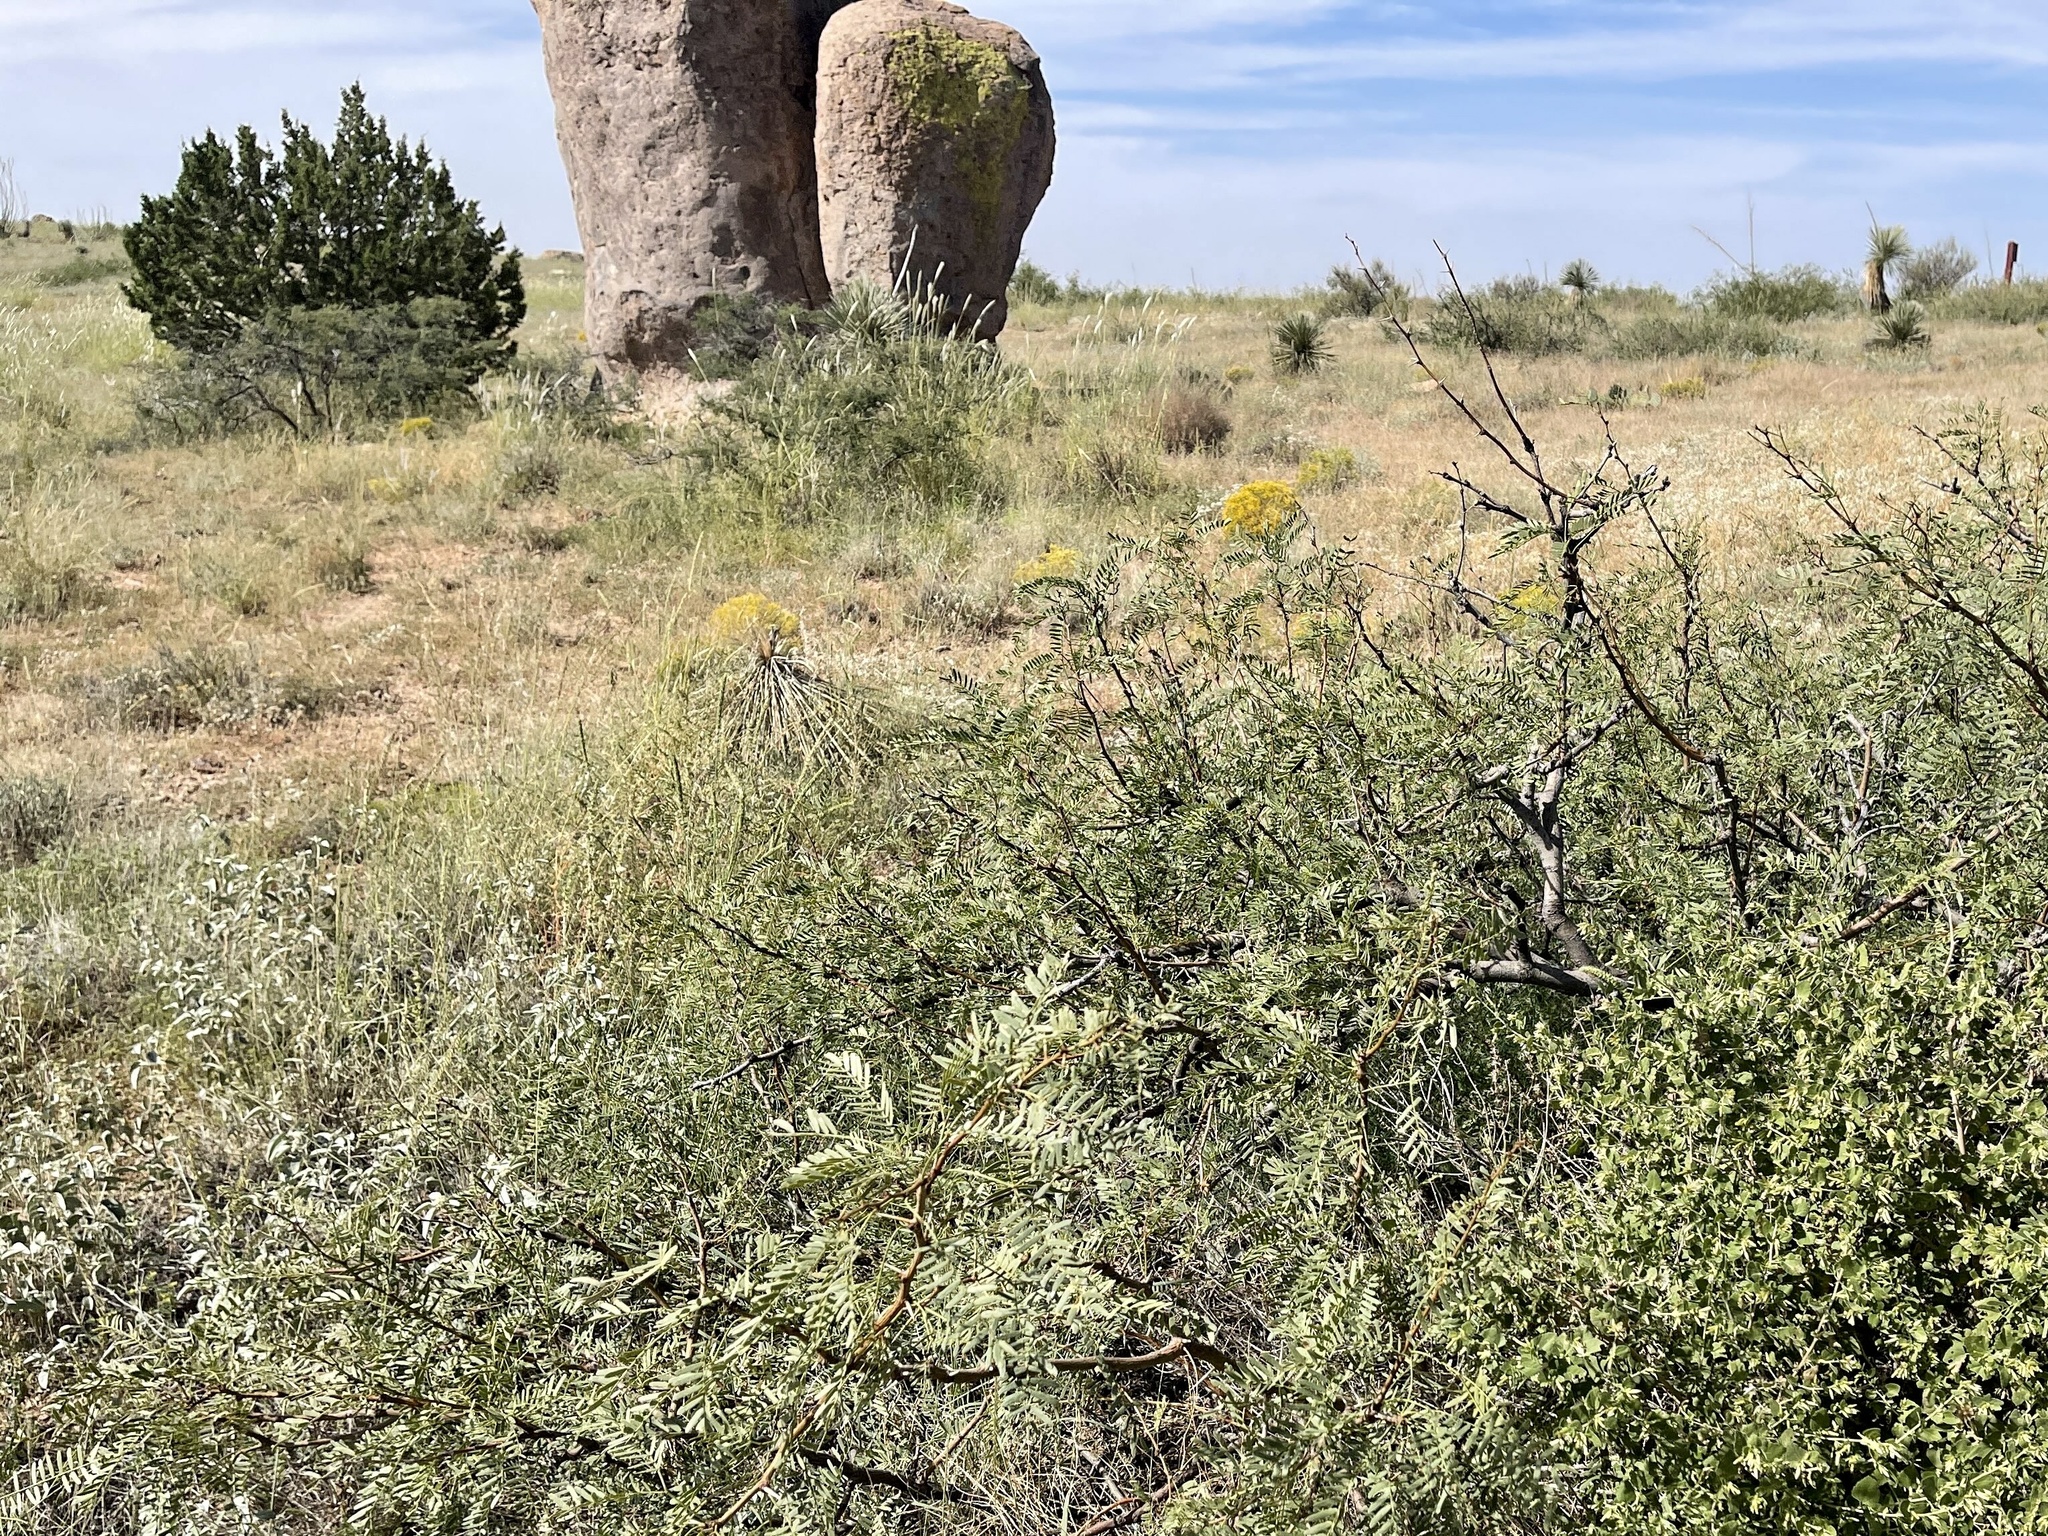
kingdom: Plantae
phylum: Tracheophyta
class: Magnoliopsida
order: Fabales
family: Fabaceae
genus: Prosopis
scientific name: Prosopis glandulosa
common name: Honey mesquite
